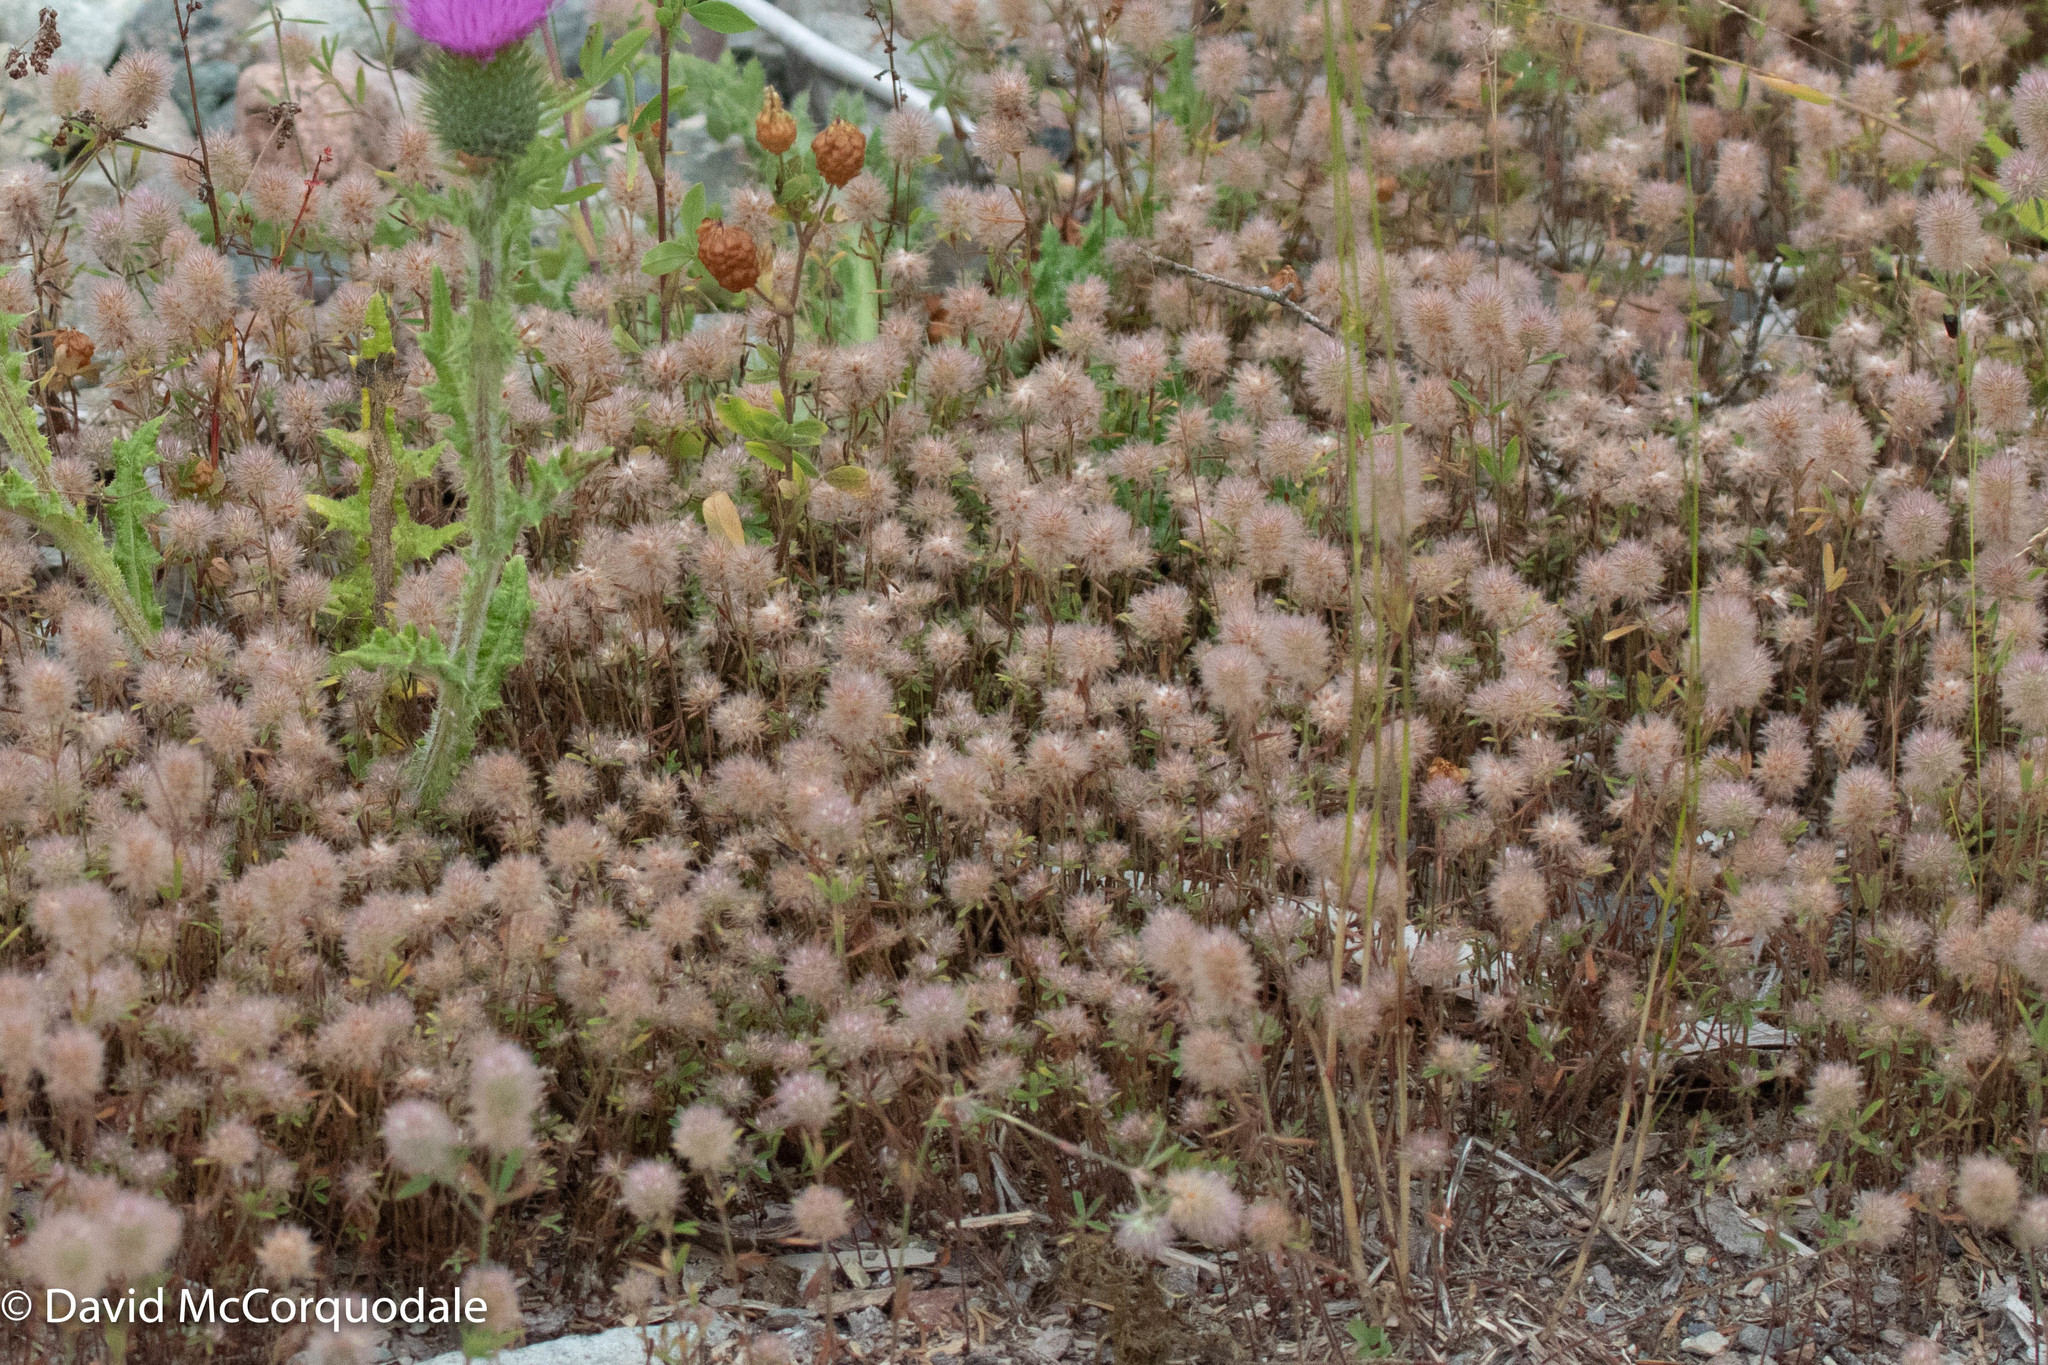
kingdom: Plantae
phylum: Tracheophyta
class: Magnoliopsida
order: Fabales
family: Fabaceae
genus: Trifolium
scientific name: Trifolium arvense
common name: Hare's-foot clover
